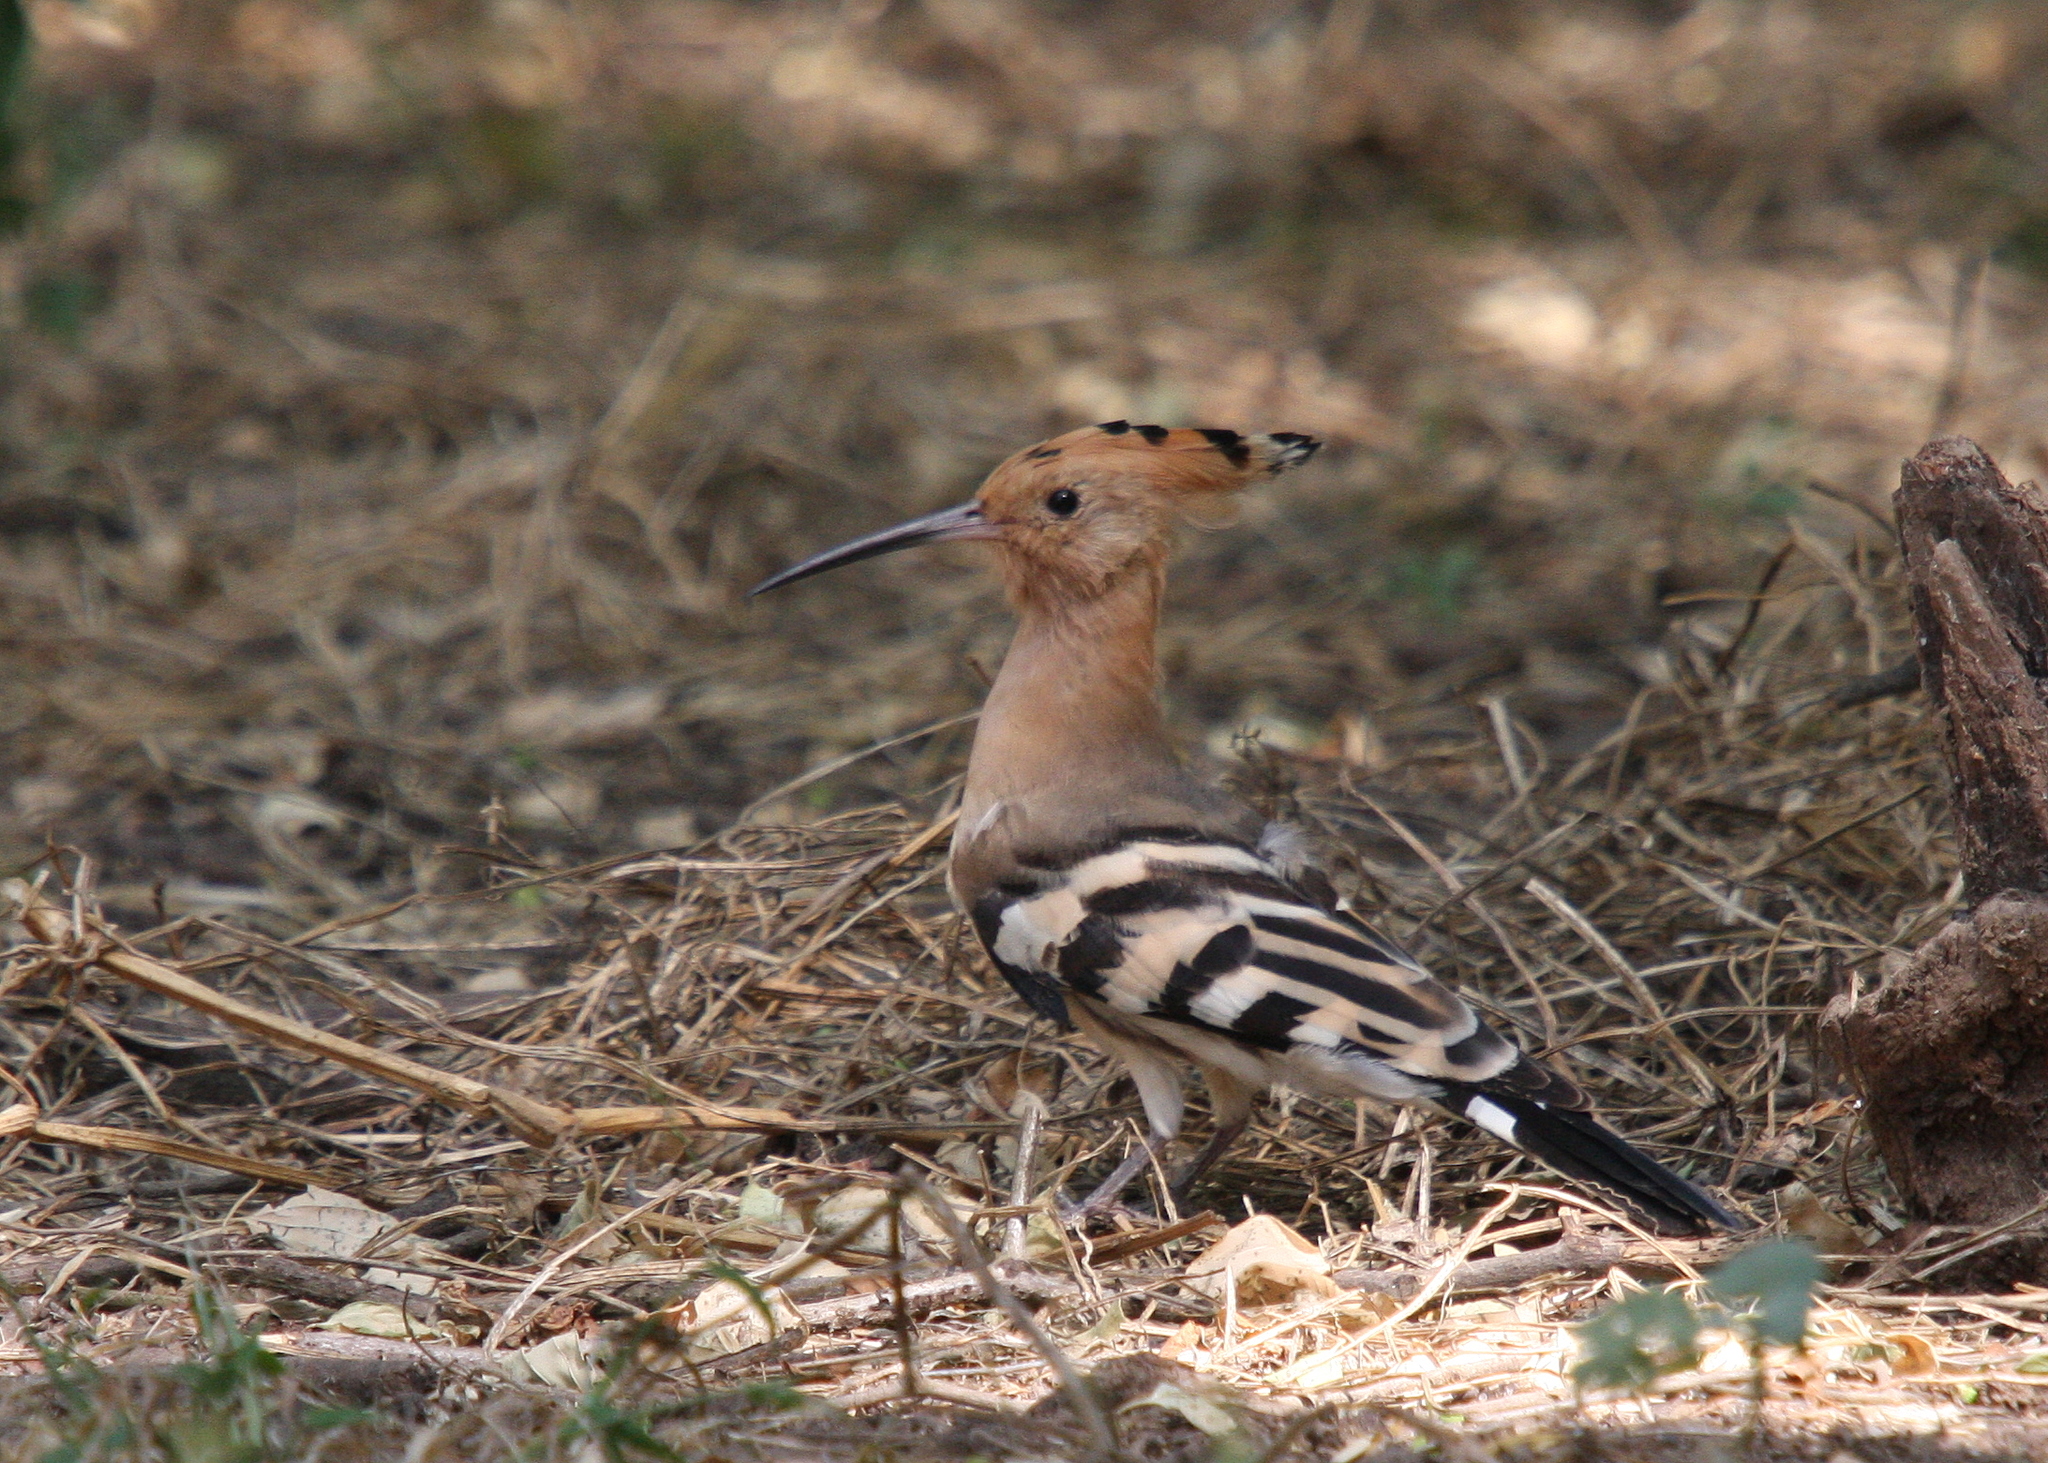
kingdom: Animalia
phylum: Chordata
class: Aves
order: Bucerotiformes
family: Upupidae
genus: Upupa
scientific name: Upupa epops
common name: Eurasian hoopoe
